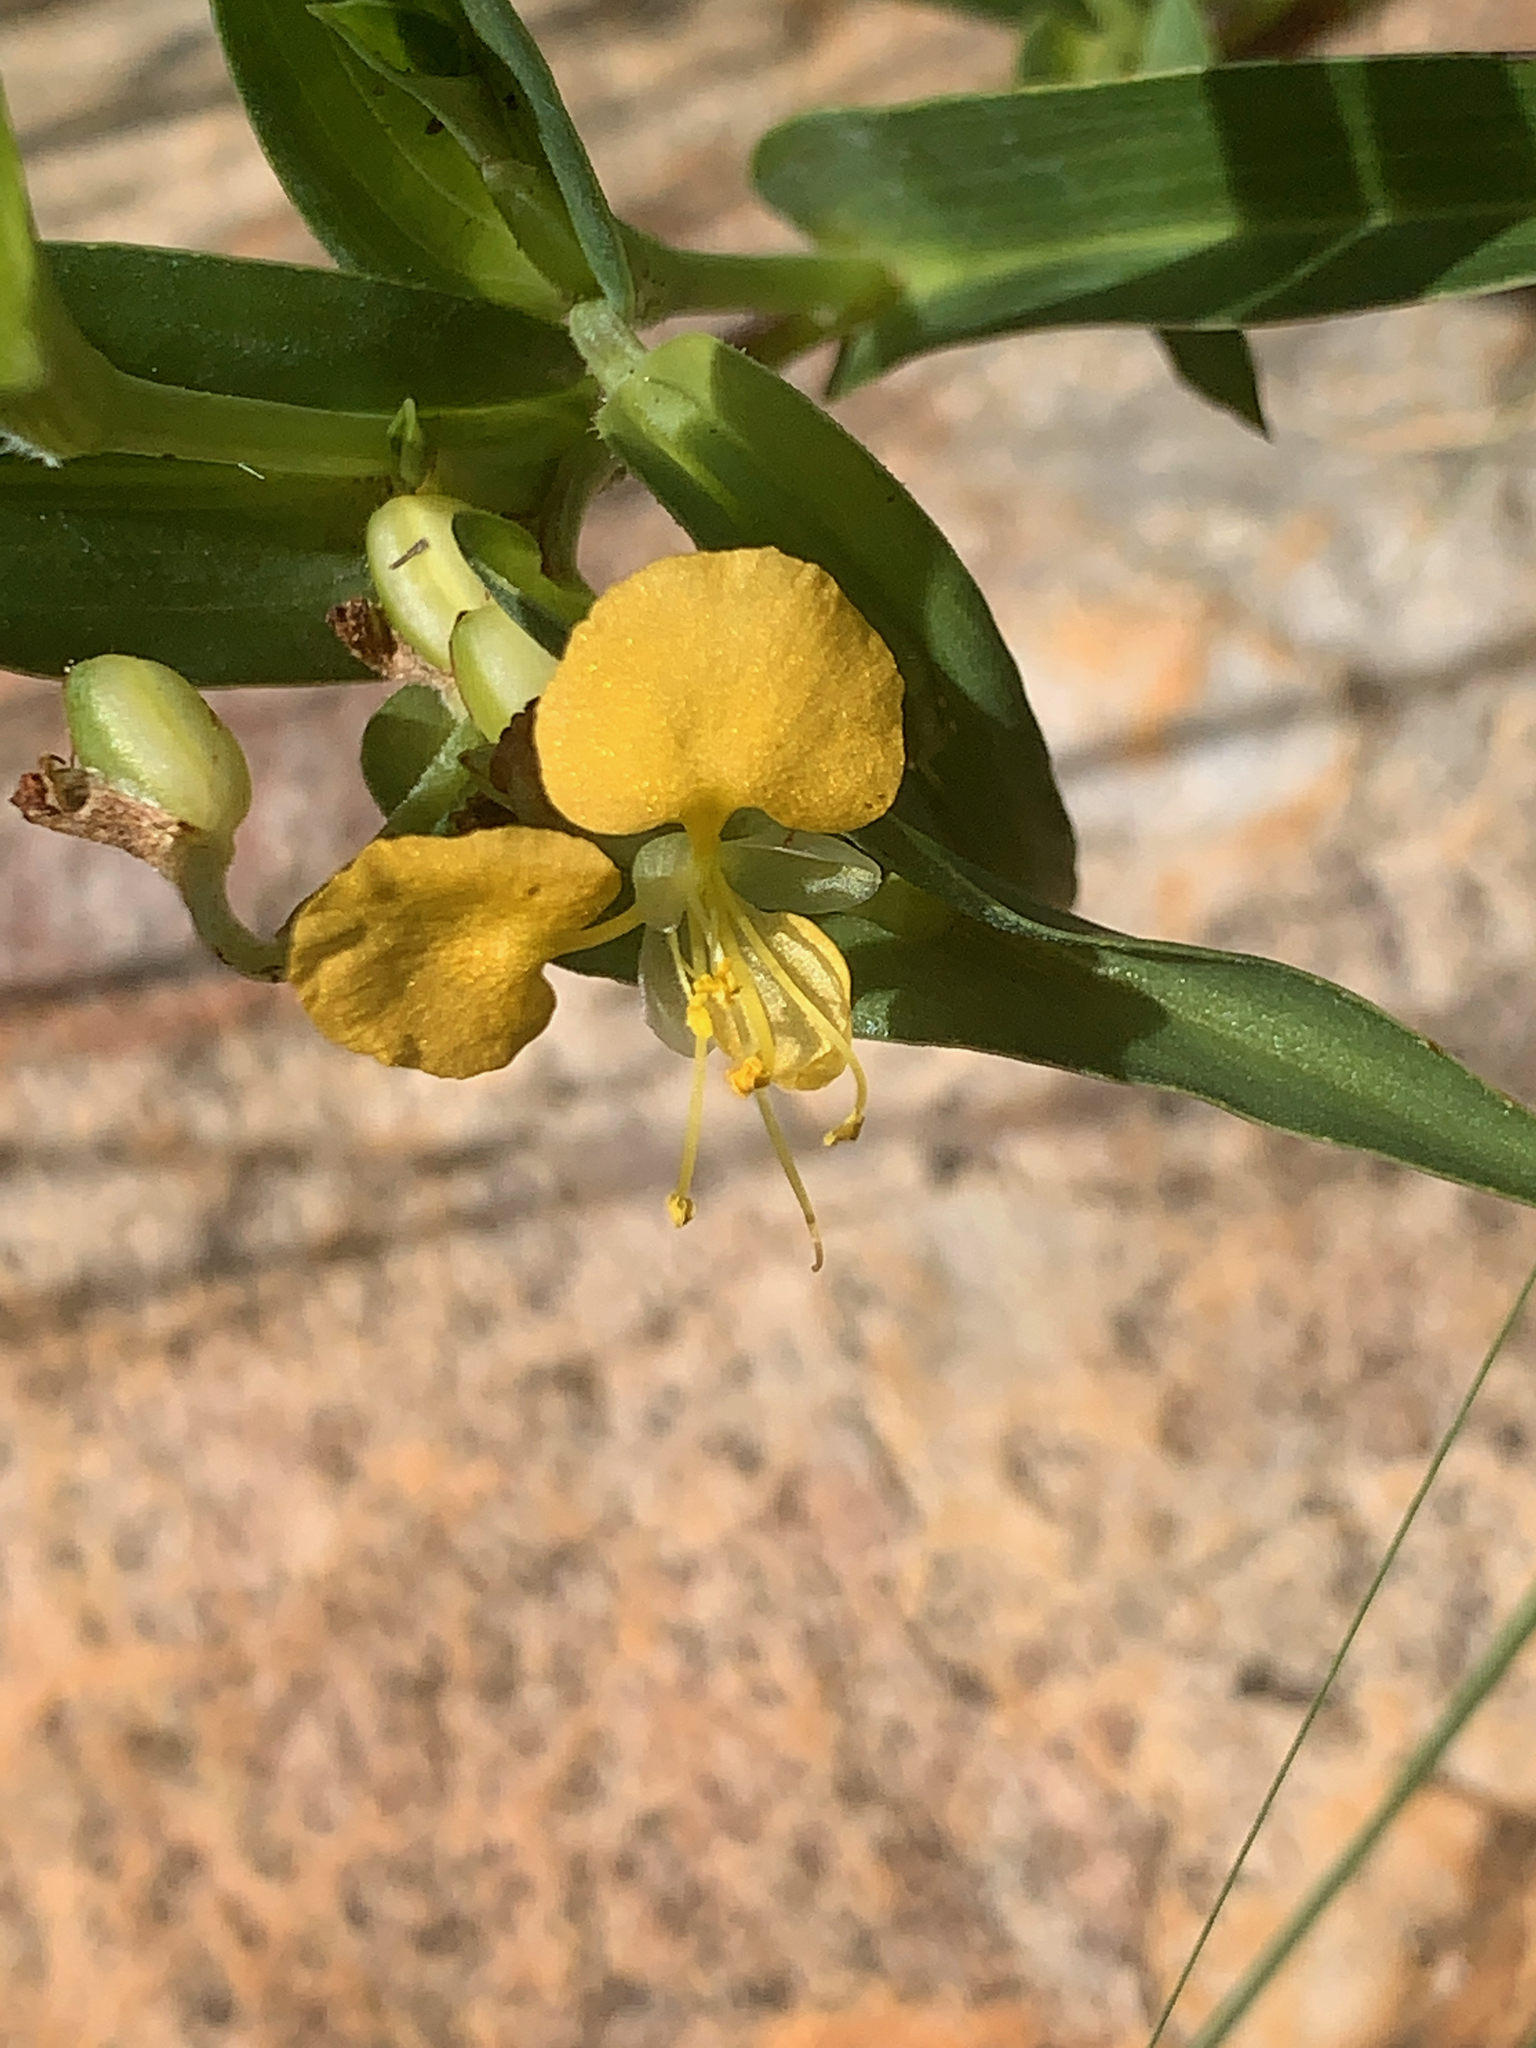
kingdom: Plantae
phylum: Tracheophyta
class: Liliopsida
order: Commelinales
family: Commelinaceae
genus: Commelina
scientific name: Commelina africana
